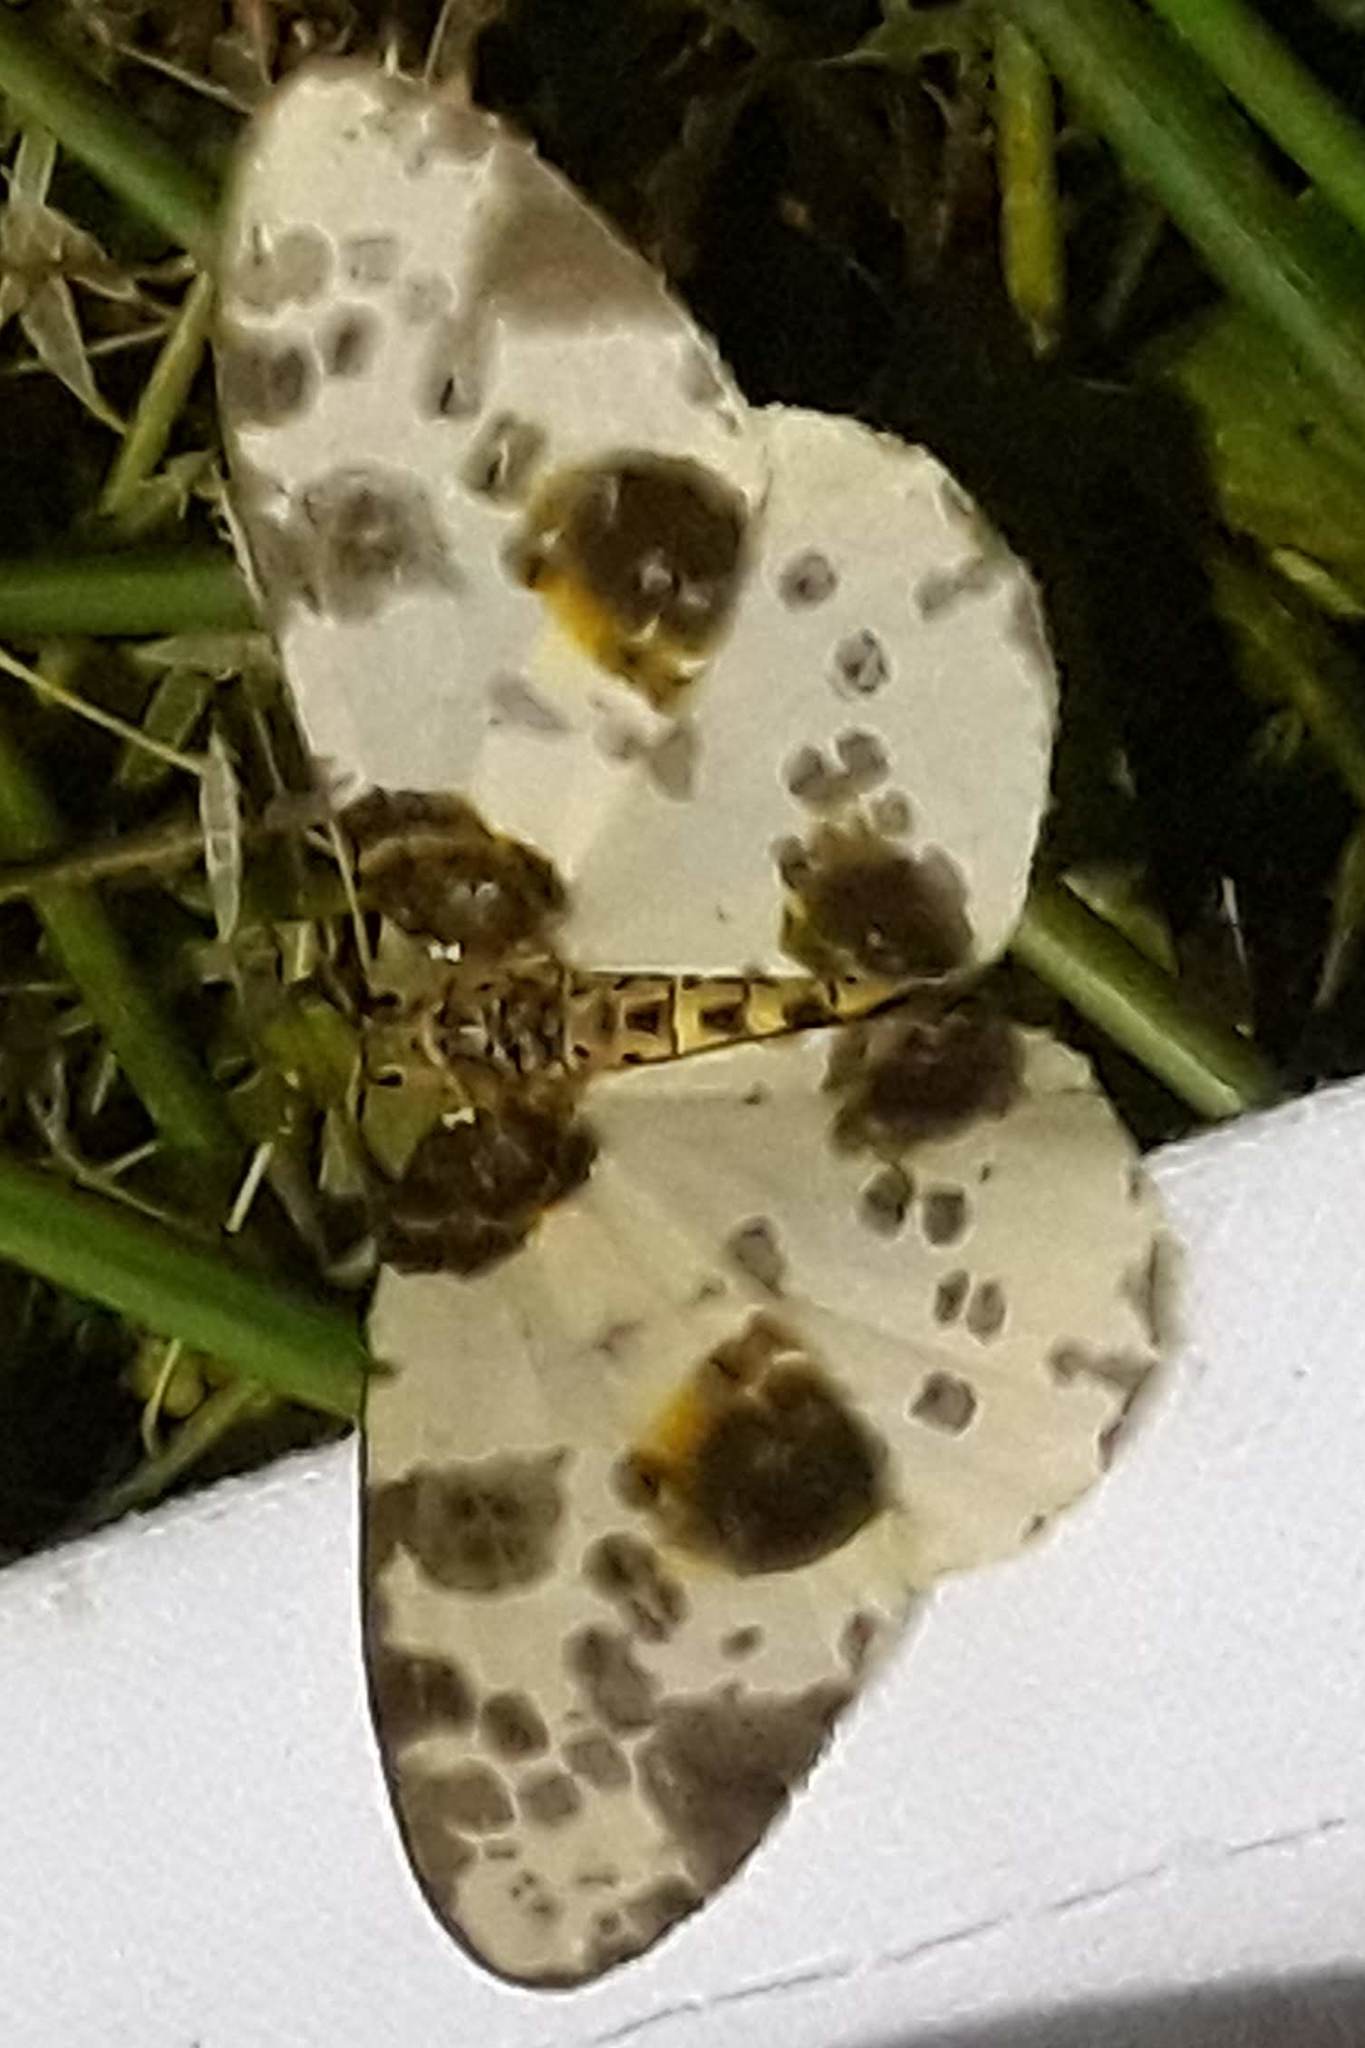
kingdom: Animalia
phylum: Arthropoda
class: Insecta
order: Lepidoptera
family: Geometridae
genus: Abraxas
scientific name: Abraxas sylvata
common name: Clouded magpie
